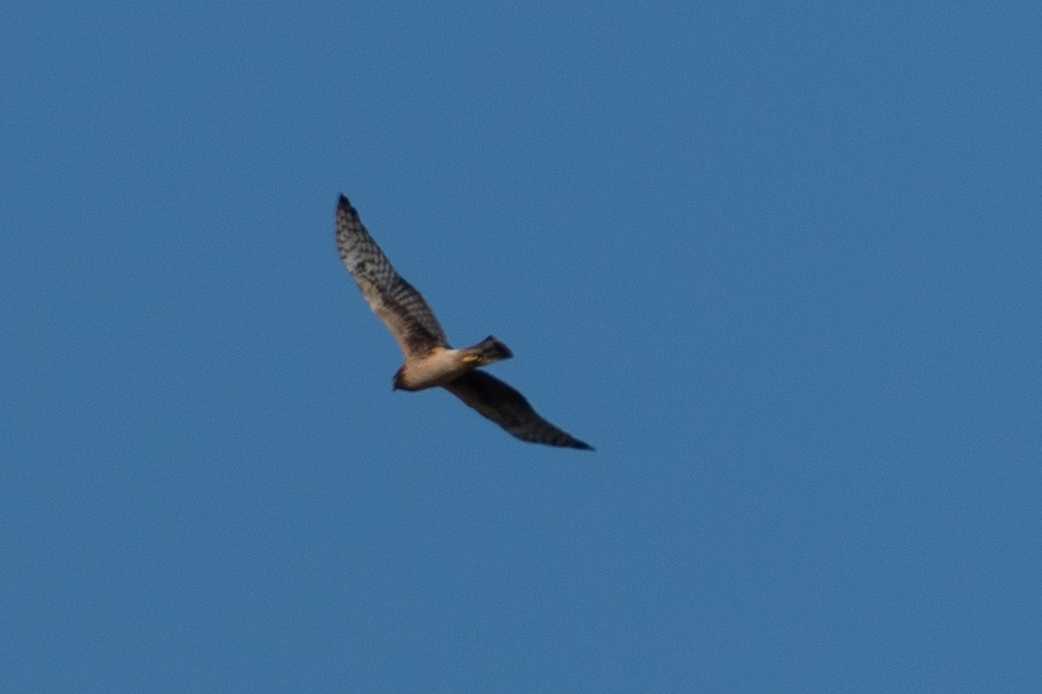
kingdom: Animalia
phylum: Chordata
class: Aves
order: Accipitriformes
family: Accipitridae
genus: Circus
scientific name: Circus cyaneus
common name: Hen harrier
